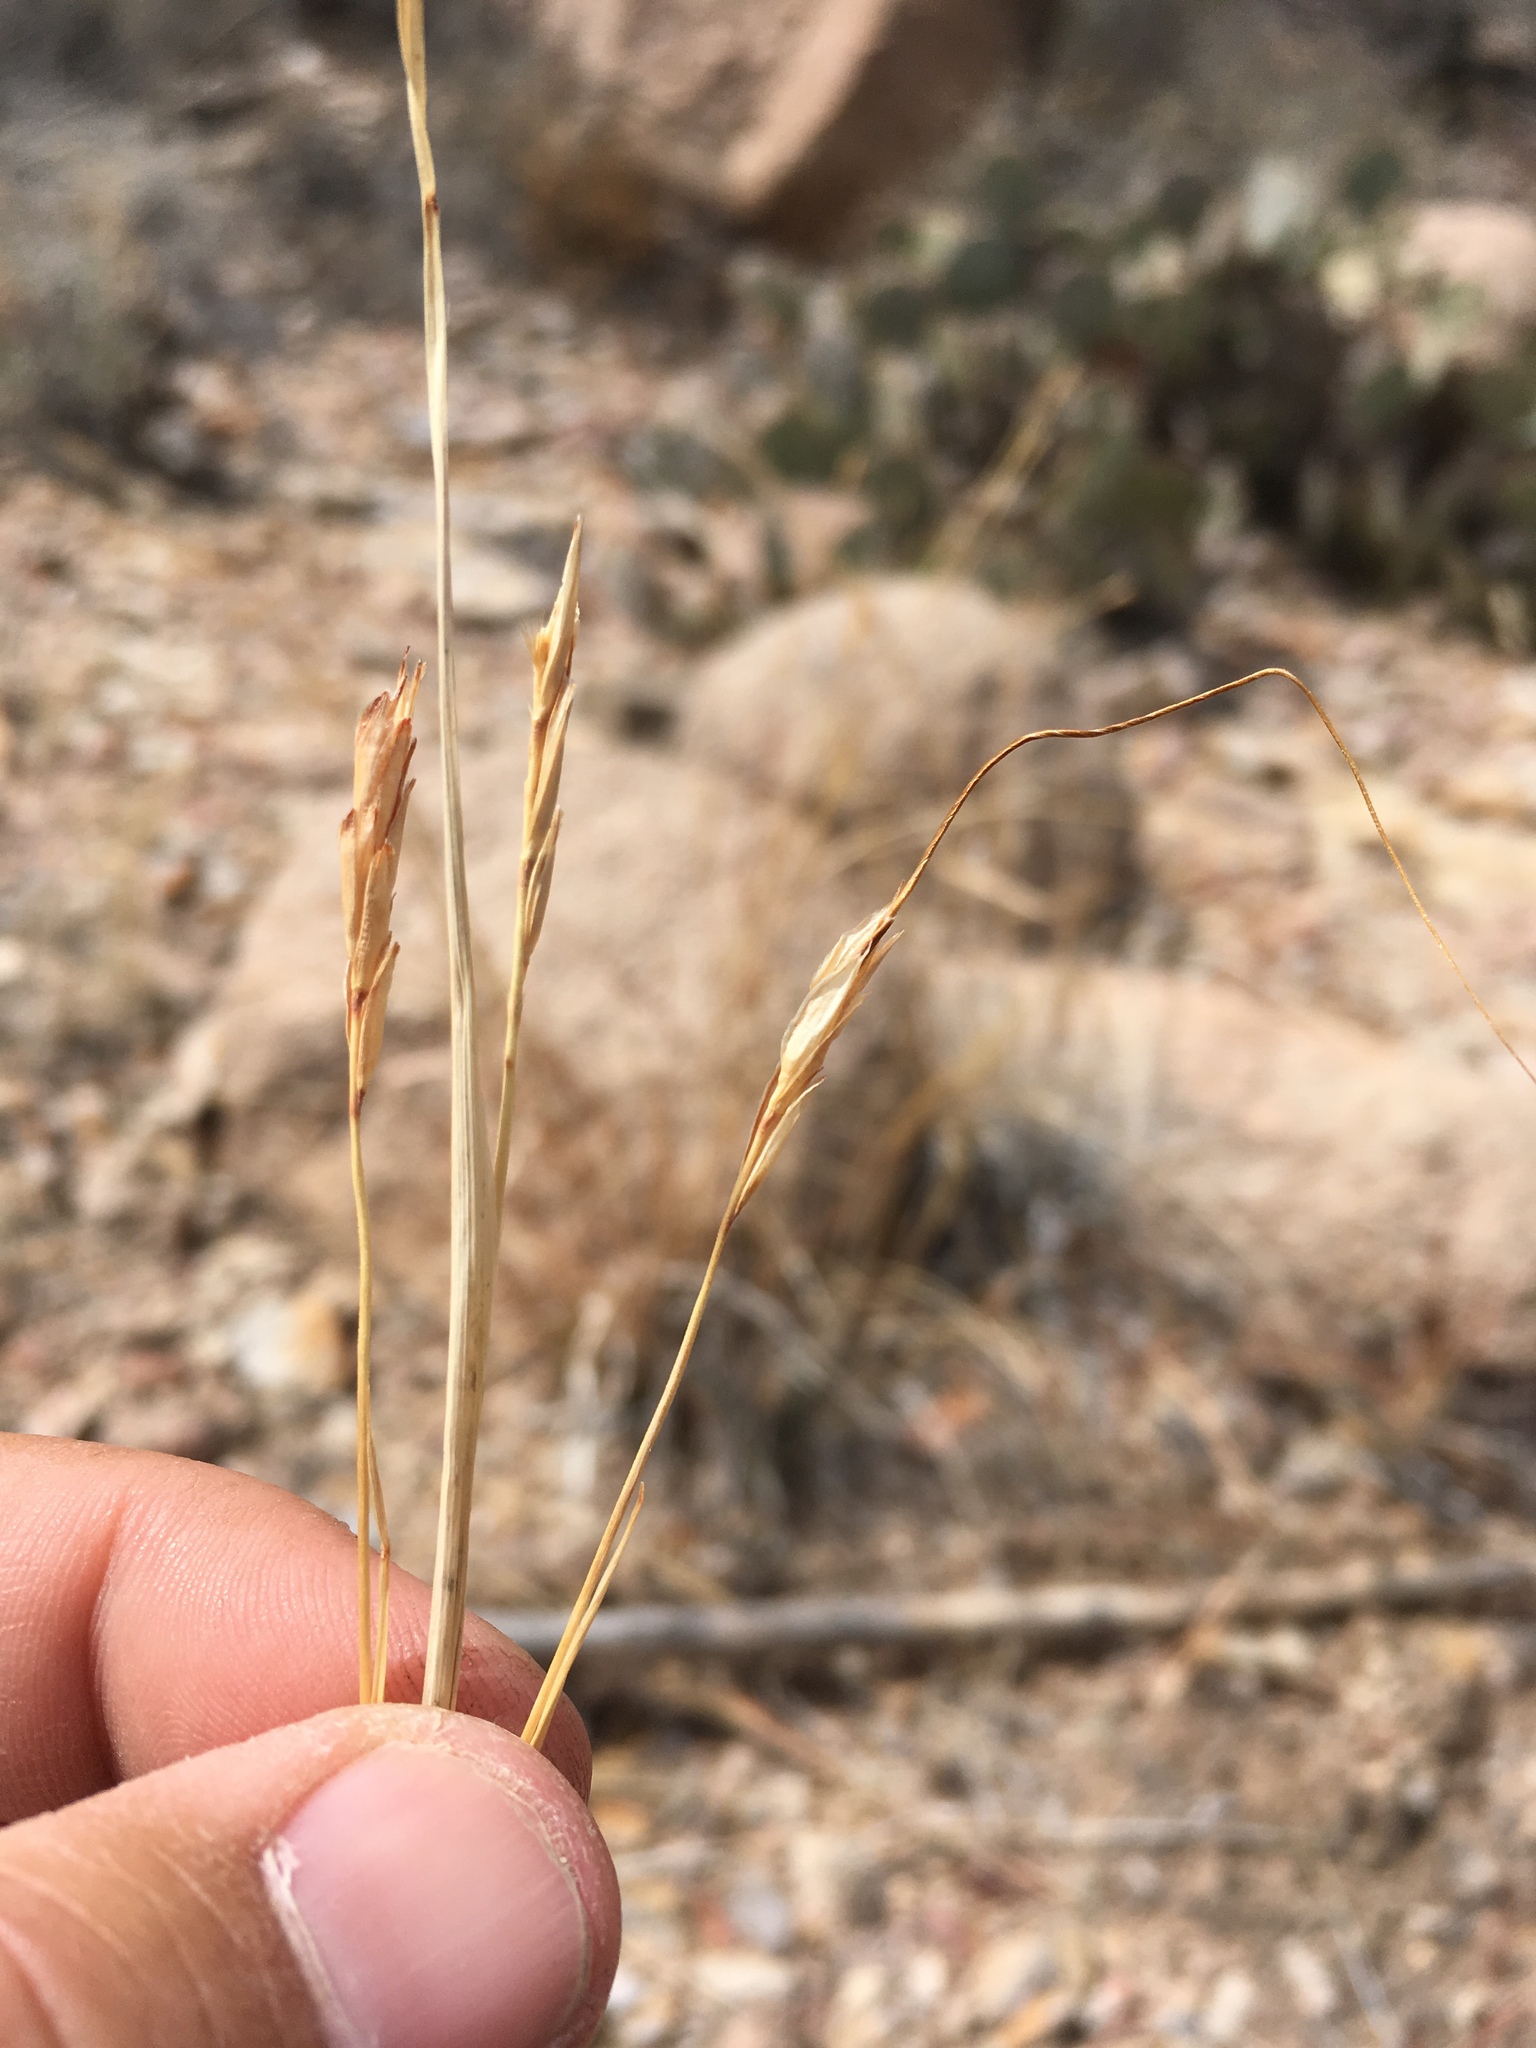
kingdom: Plantae
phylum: Tracheophyta
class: Liliopsida
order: Poales
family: Poaceae
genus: Heteropogon
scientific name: Heteropogon contortus
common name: Tanglehead
